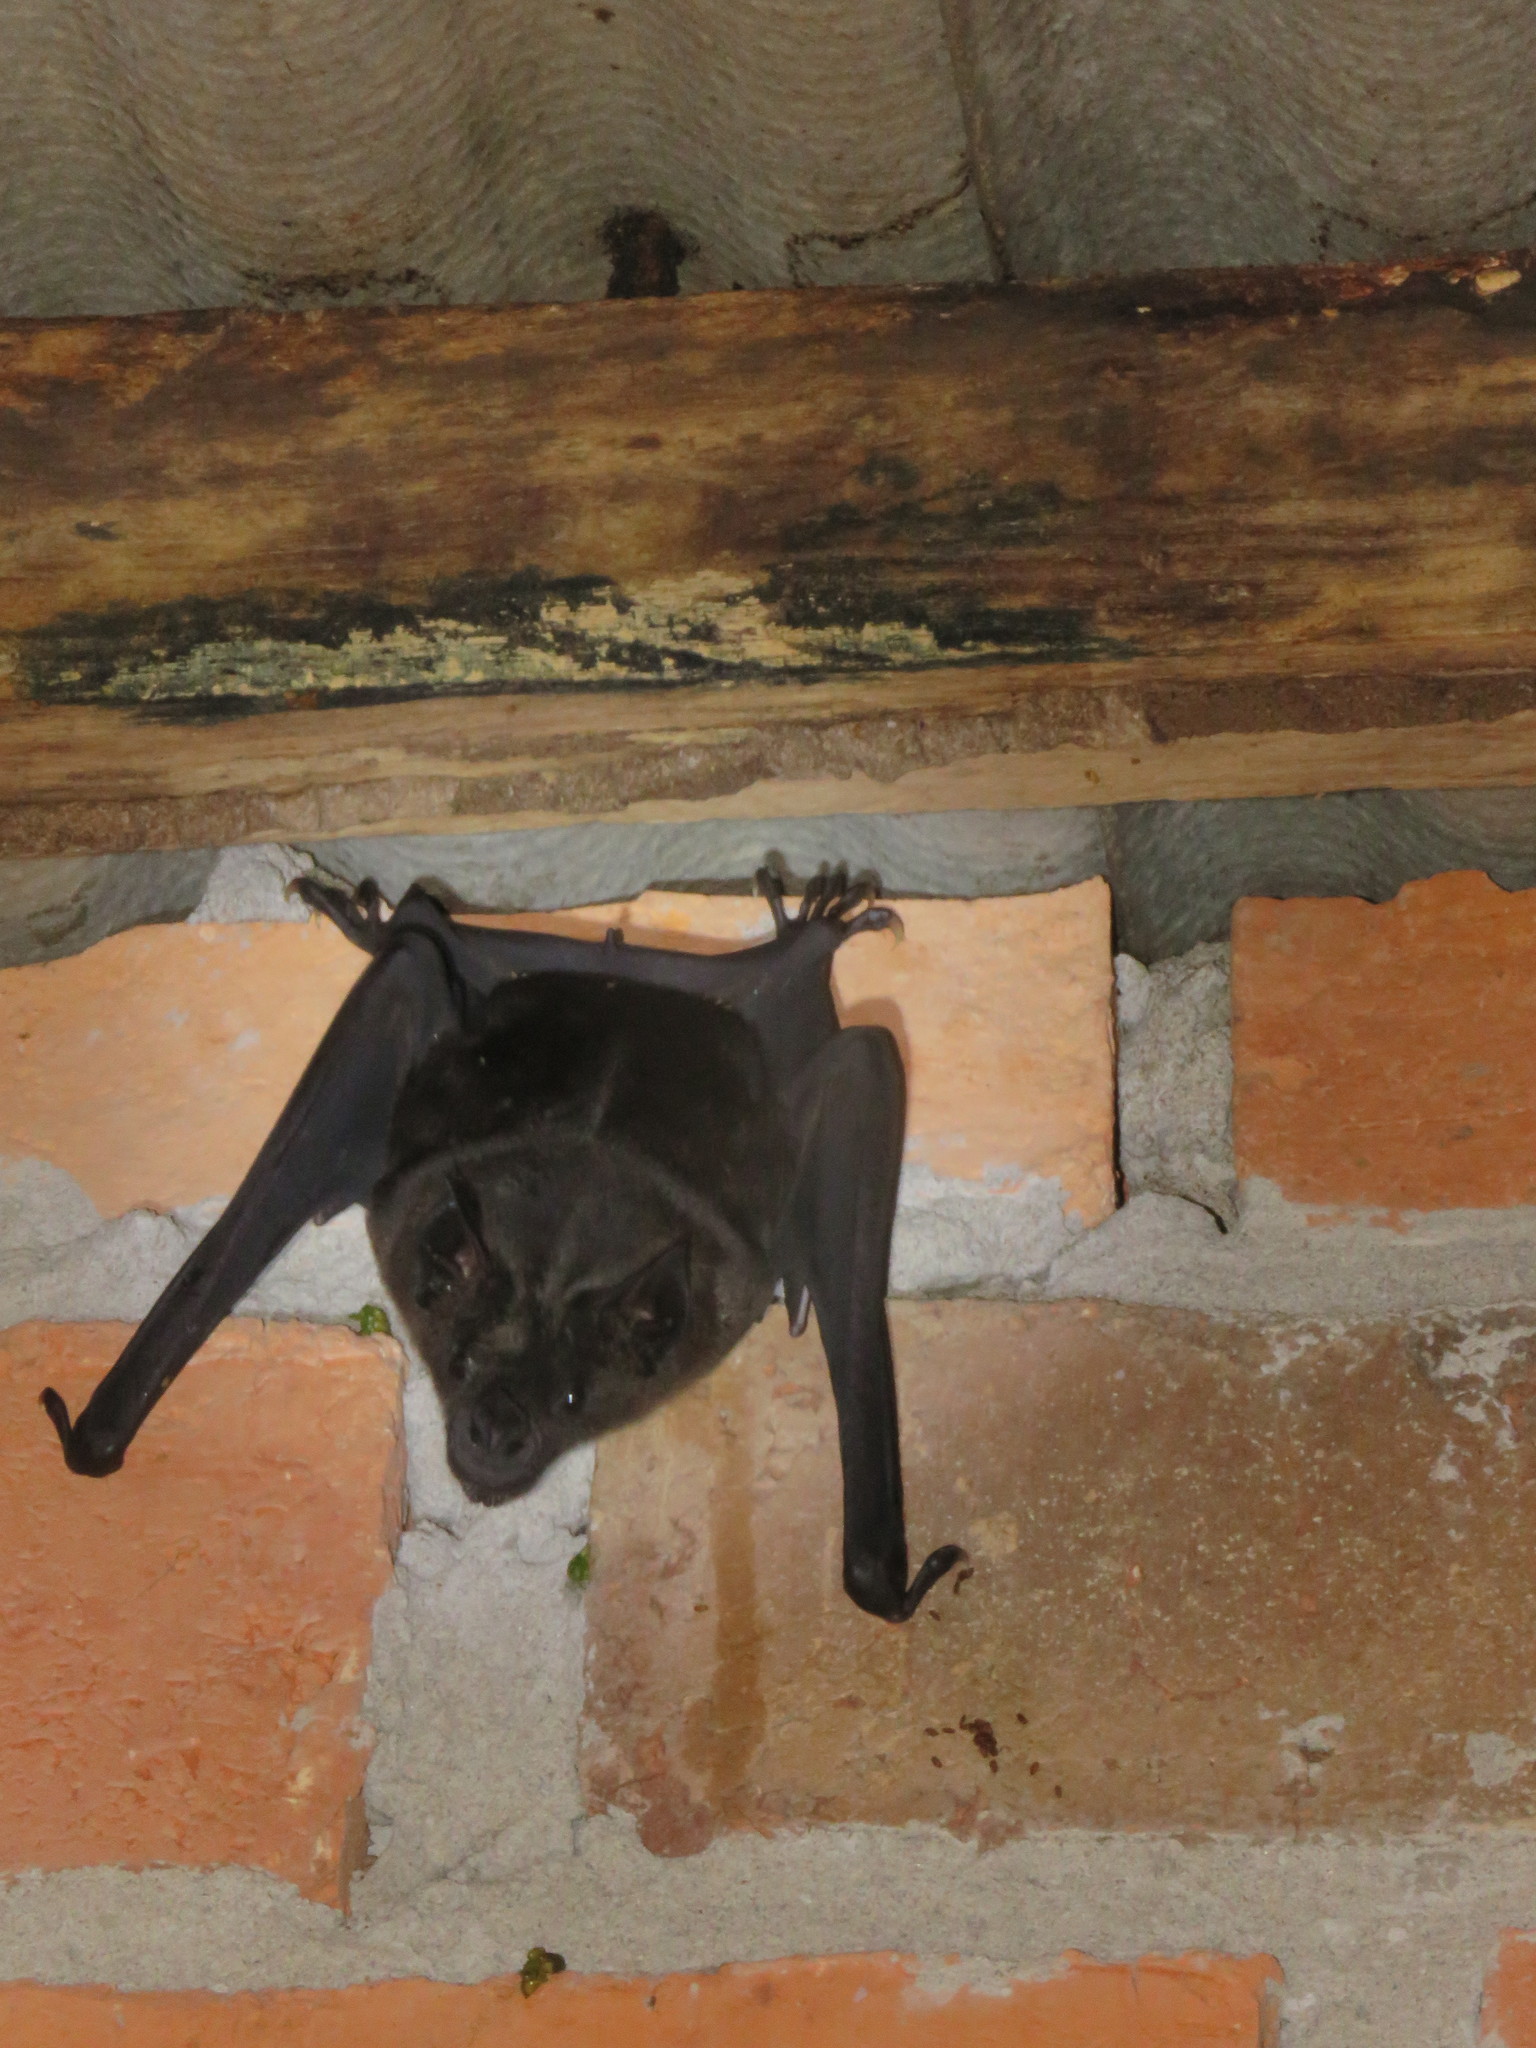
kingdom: Animalia
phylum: Chordata
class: Mammalia
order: Chiroptera
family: Phyllostomidae
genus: Phyllostomus
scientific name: Phyllostomus hastatus
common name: Greater spear-nosed bat
